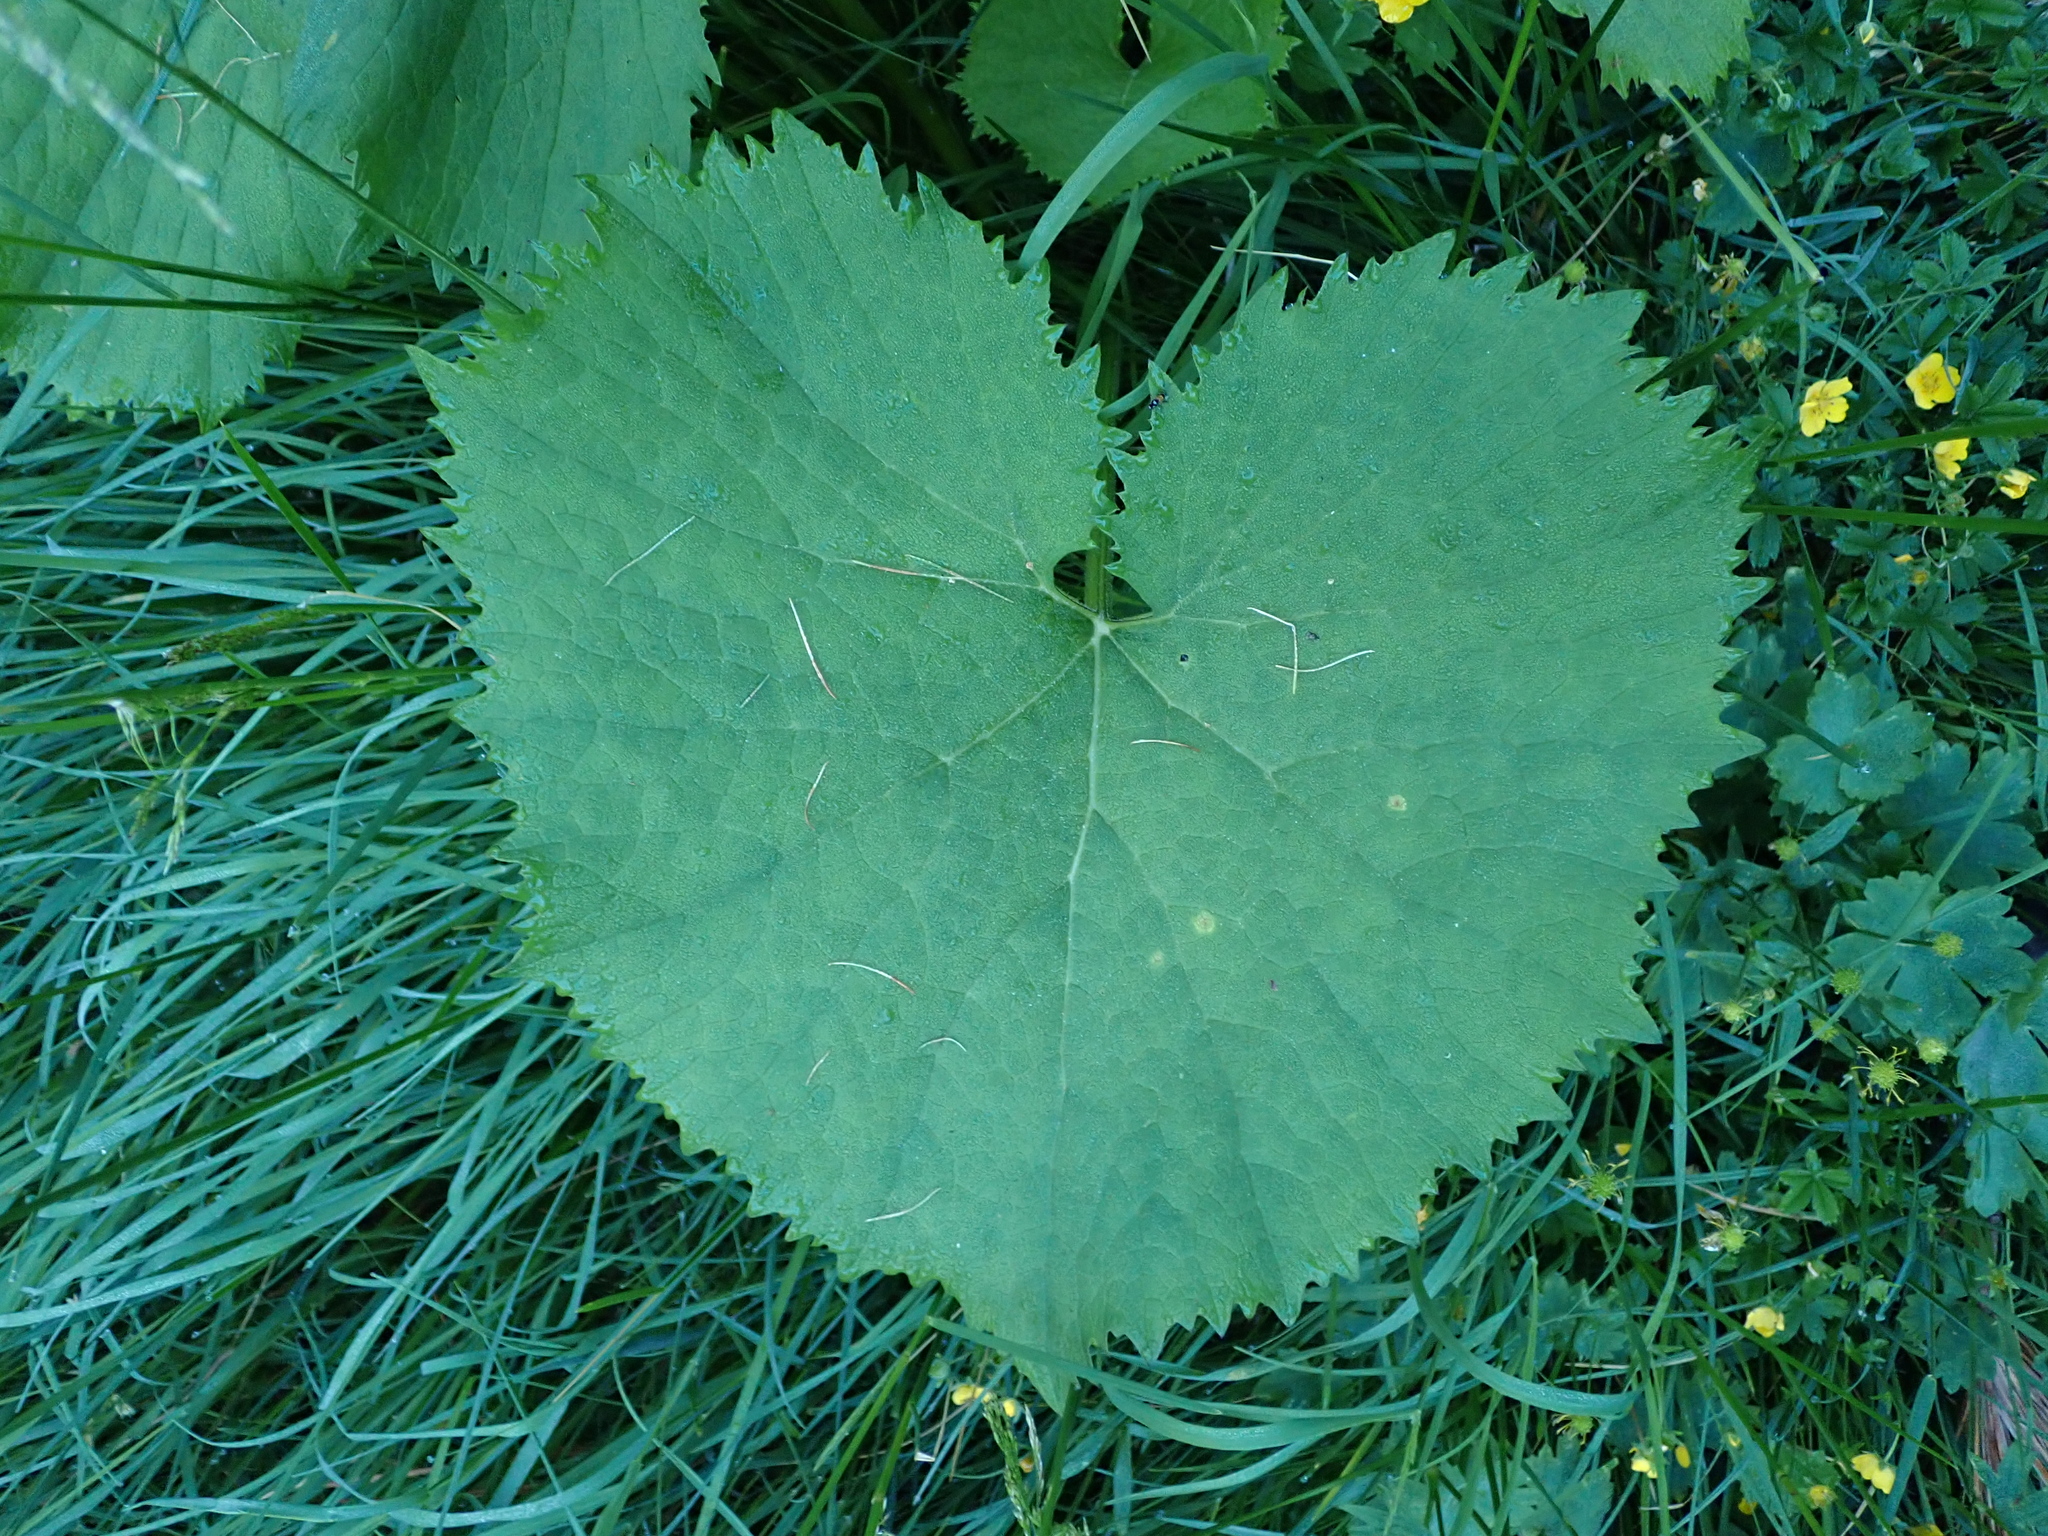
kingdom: Plantae
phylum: Tracheophyta
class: Magnoliopsida
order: Asterales
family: Asteraceae
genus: Adenostyles
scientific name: Adenostyles alliariae
